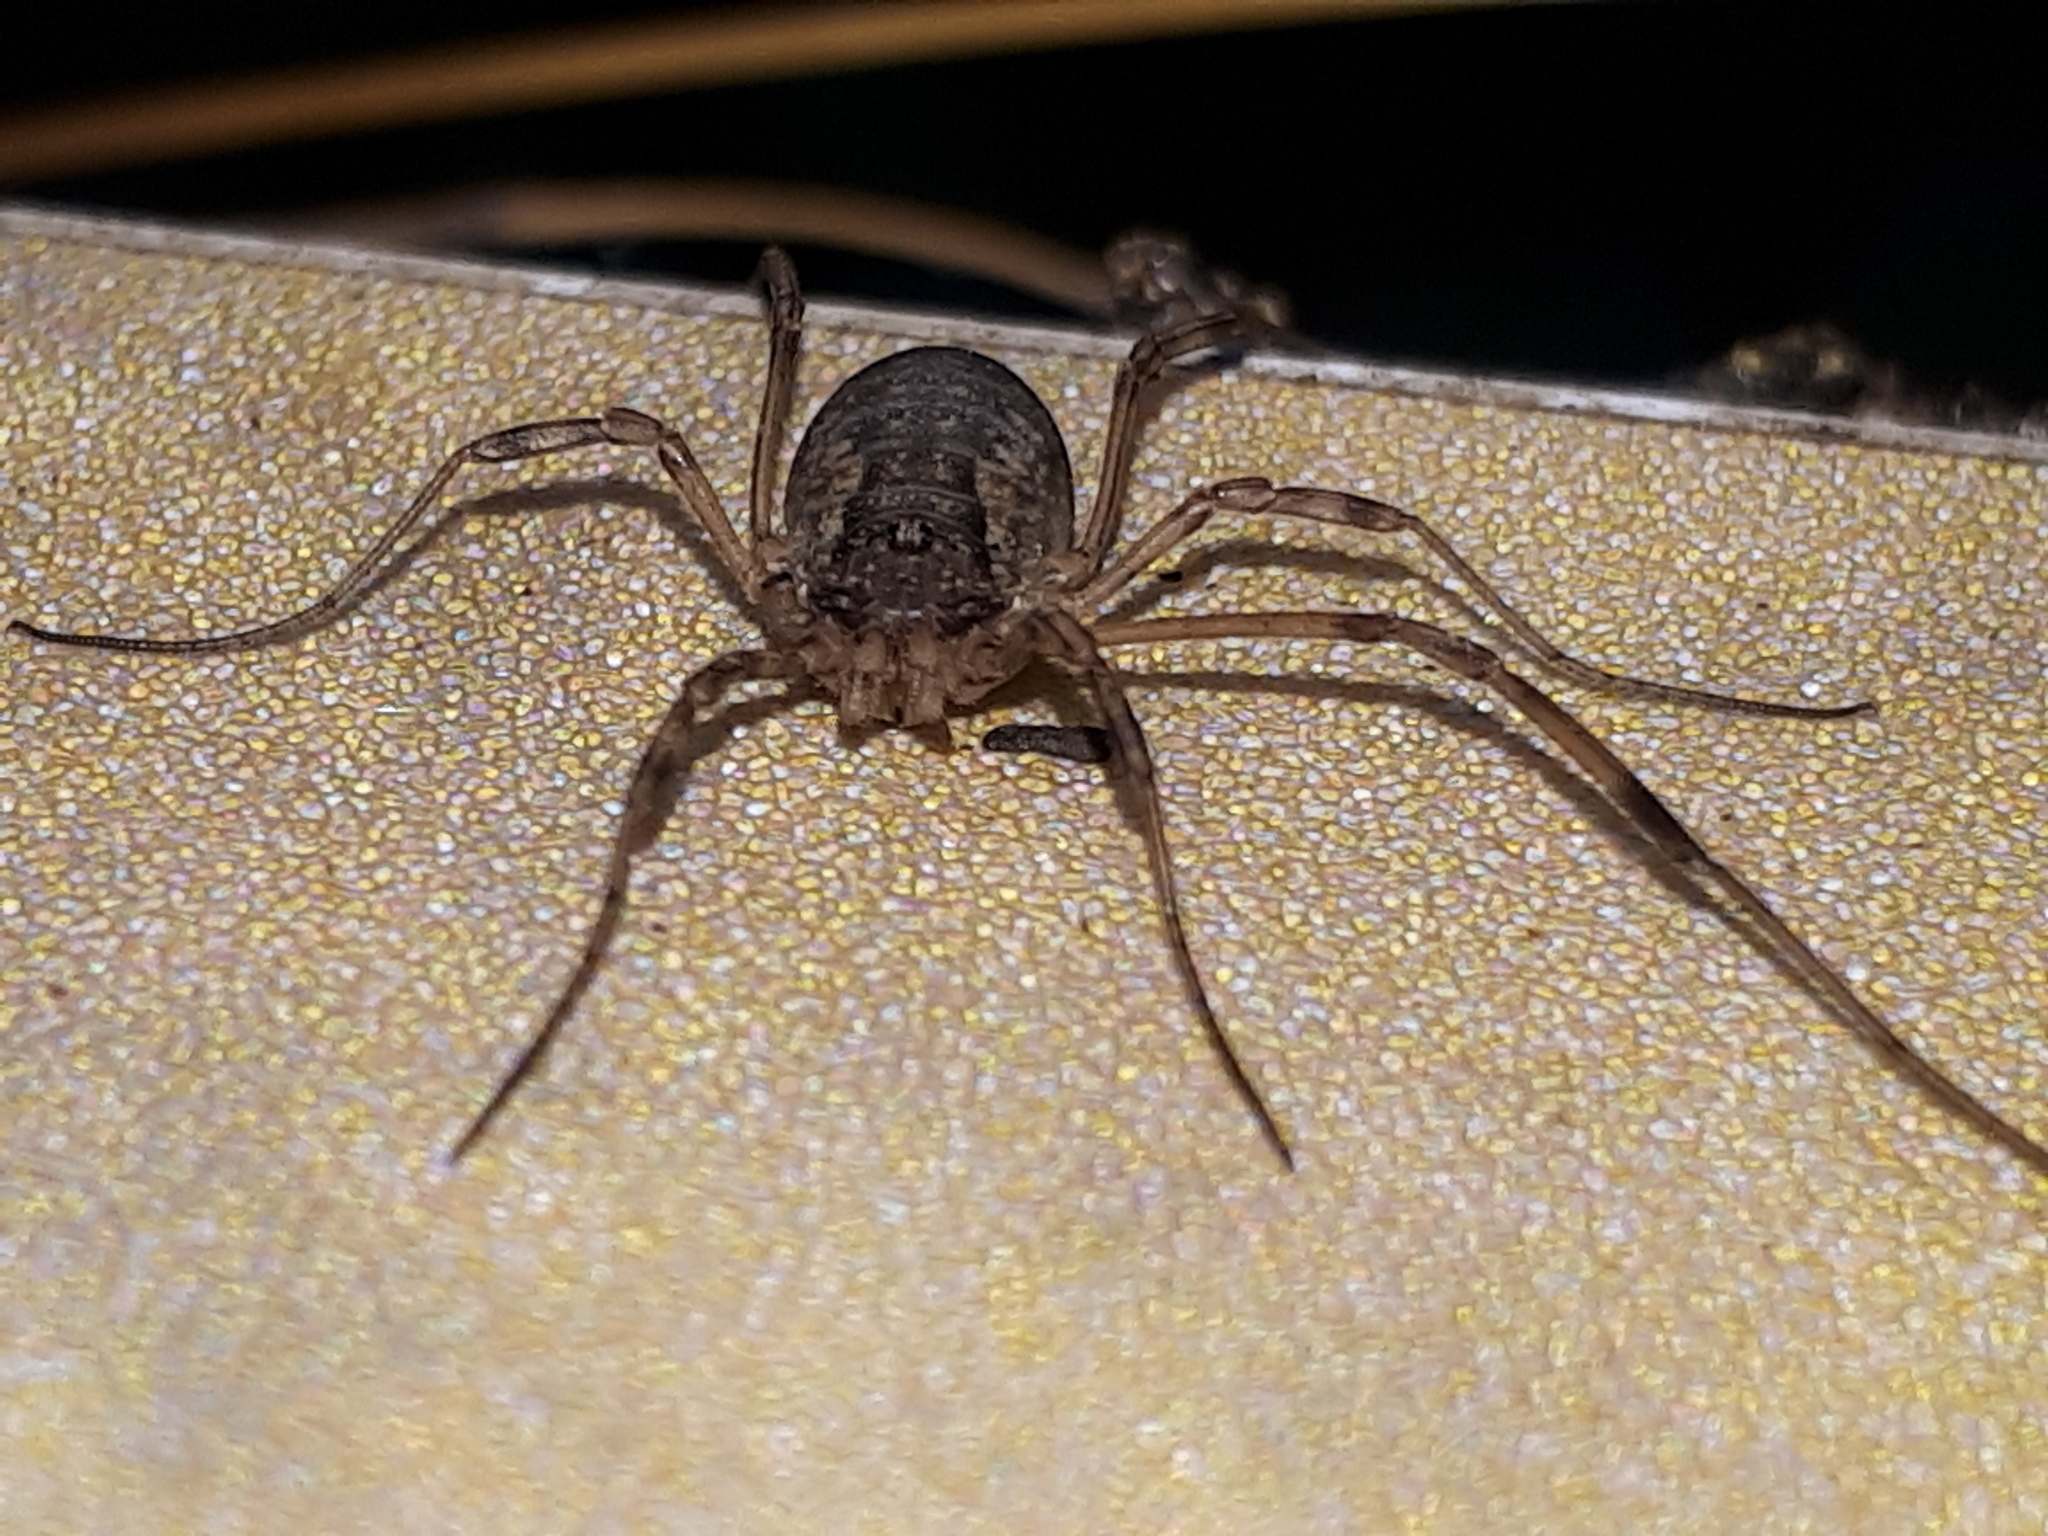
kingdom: Animalia
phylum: Arthropoda
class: Arachnida
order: Opiliones
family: Phalangiidae
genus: Oligolophus
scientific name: Oligolophus tridens
